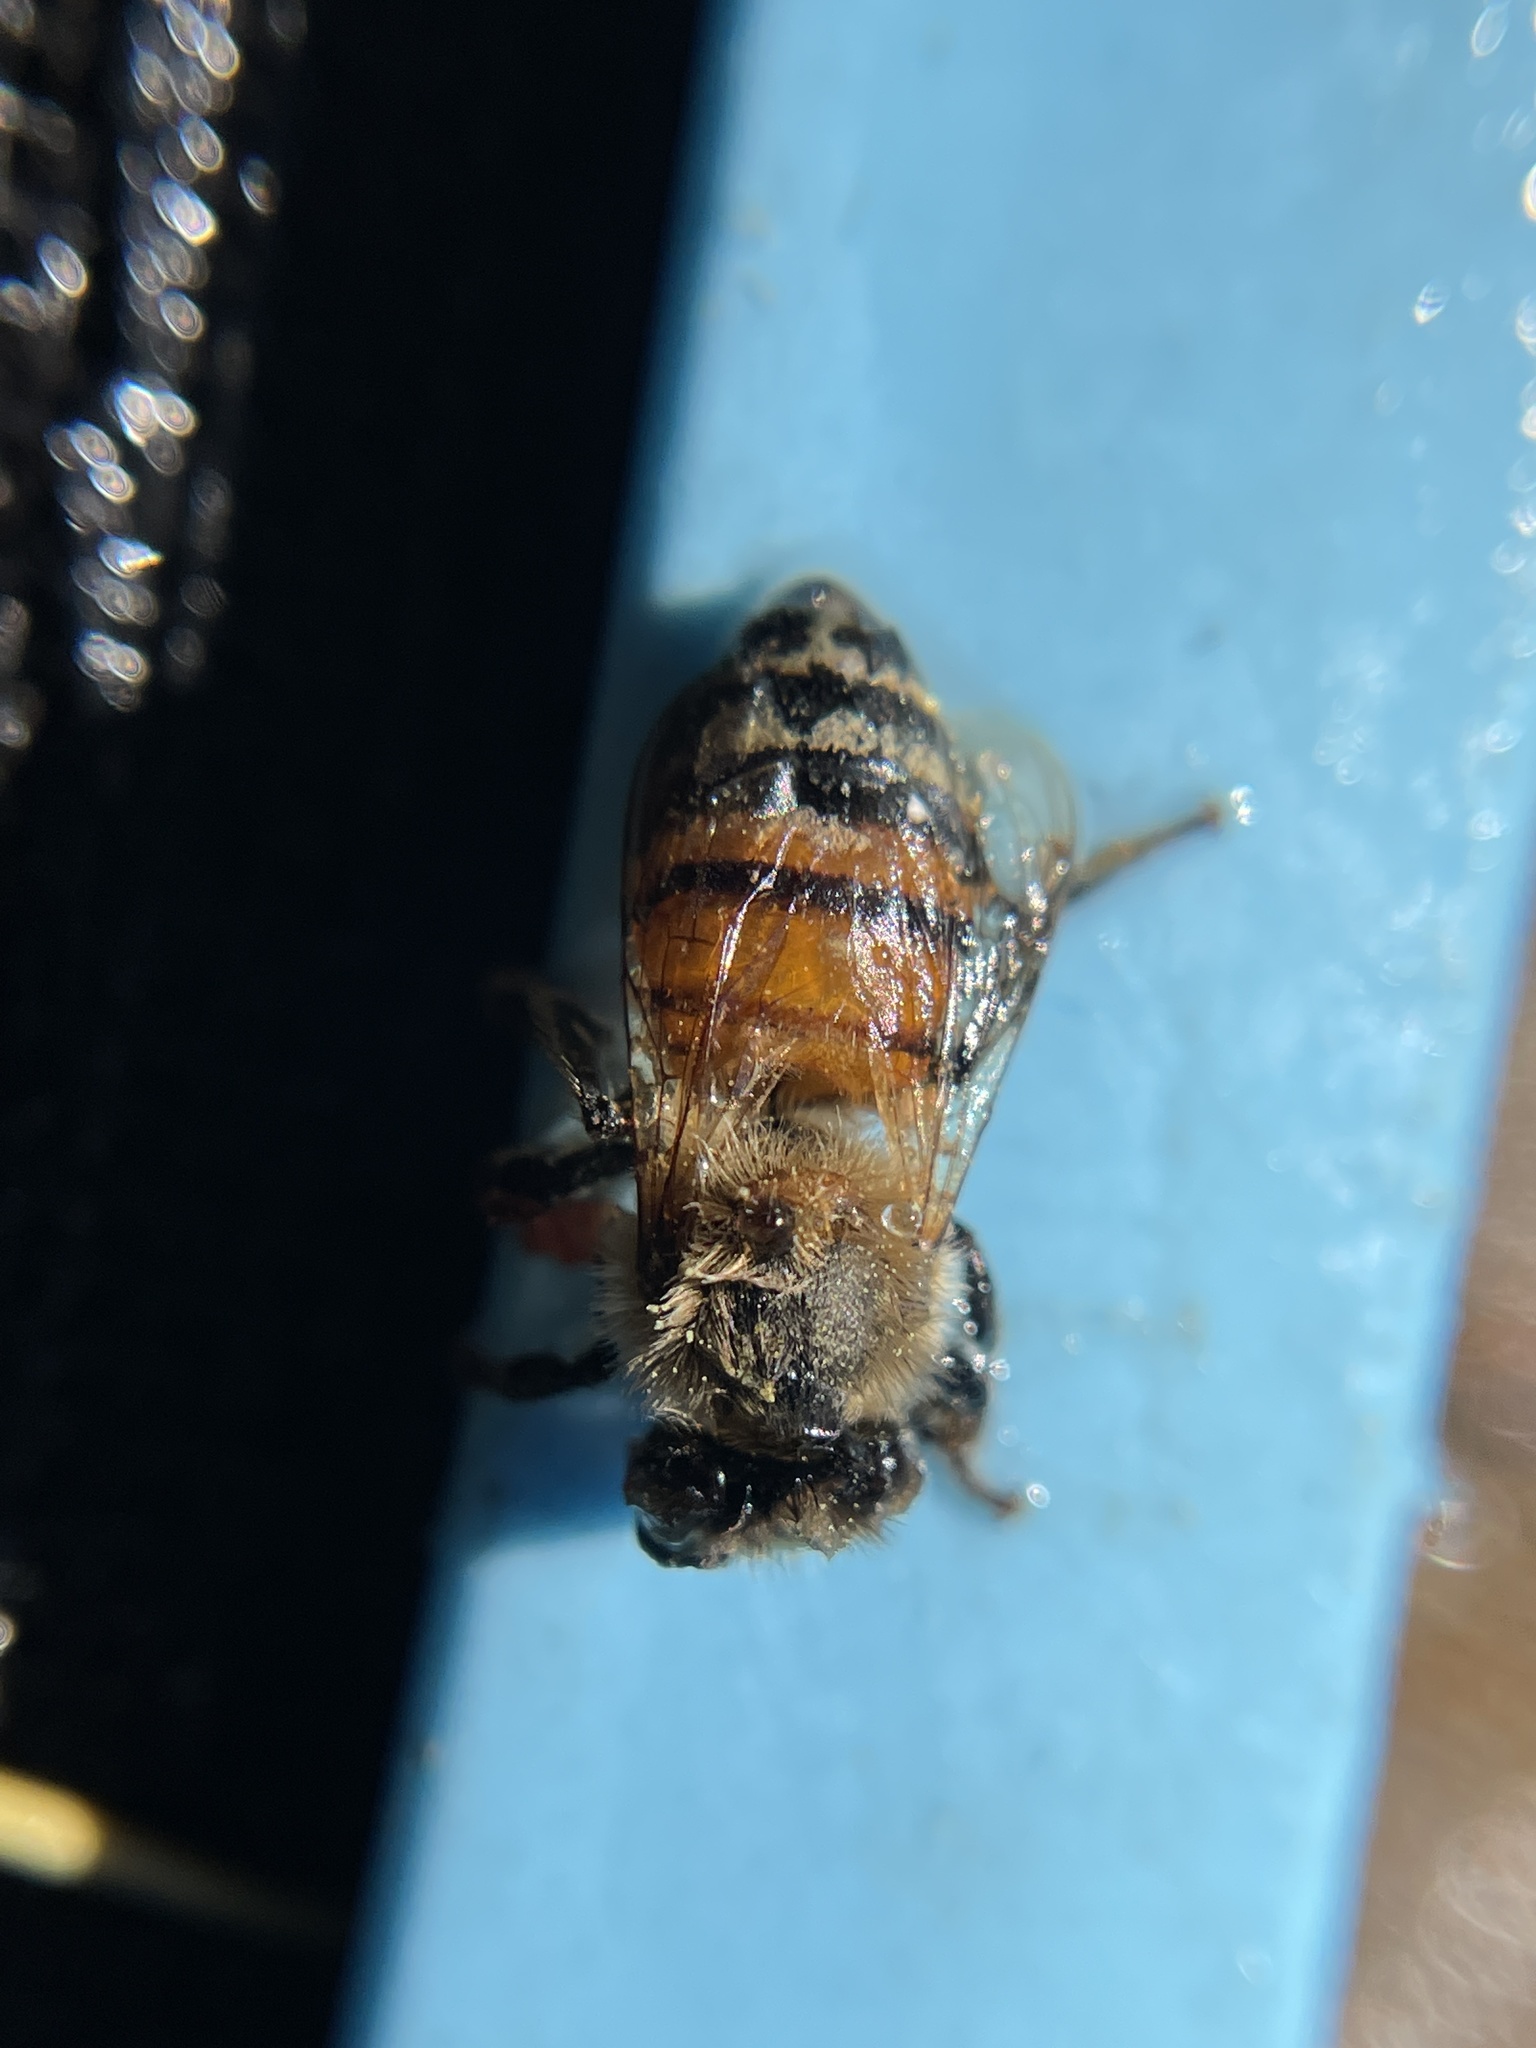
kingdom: Animalia
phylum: Arthropoda
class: Insecta
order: Hymenoptera
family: Apidae
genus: Apis
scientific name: Apis mellifera
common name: Honey bee
